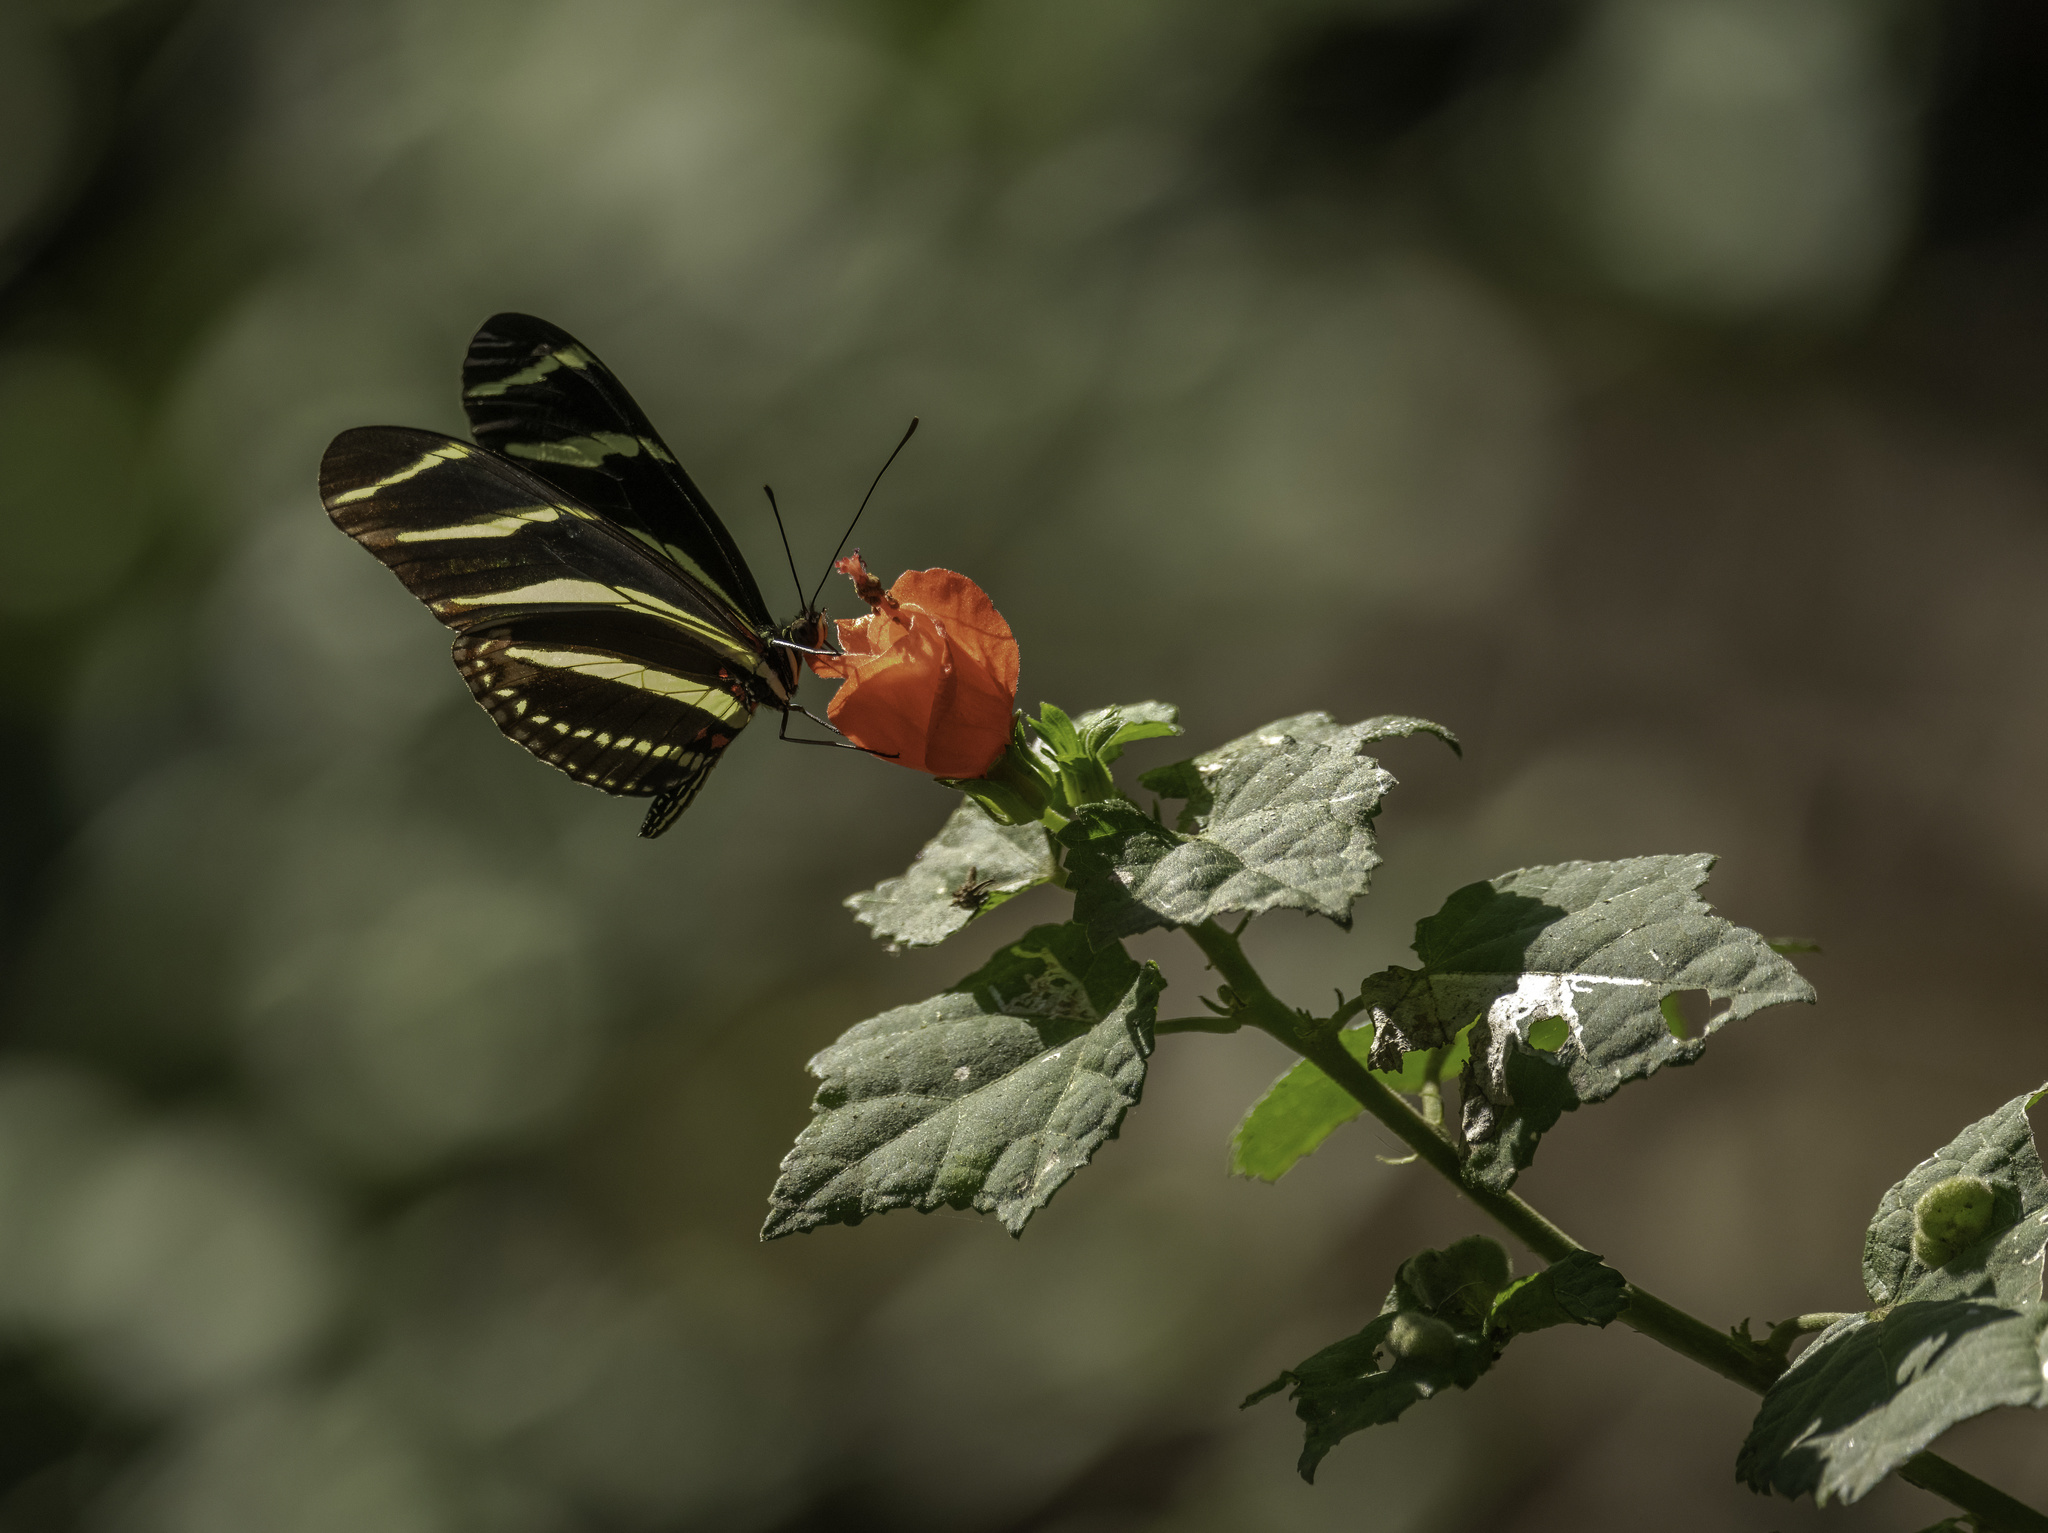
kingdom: Animalia
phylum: Arthropoda
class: Insecta
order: Lepidoptera
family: Nymphalidae
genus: Heliconius
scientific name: Heliconius charithonia
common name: Zebra long wing
